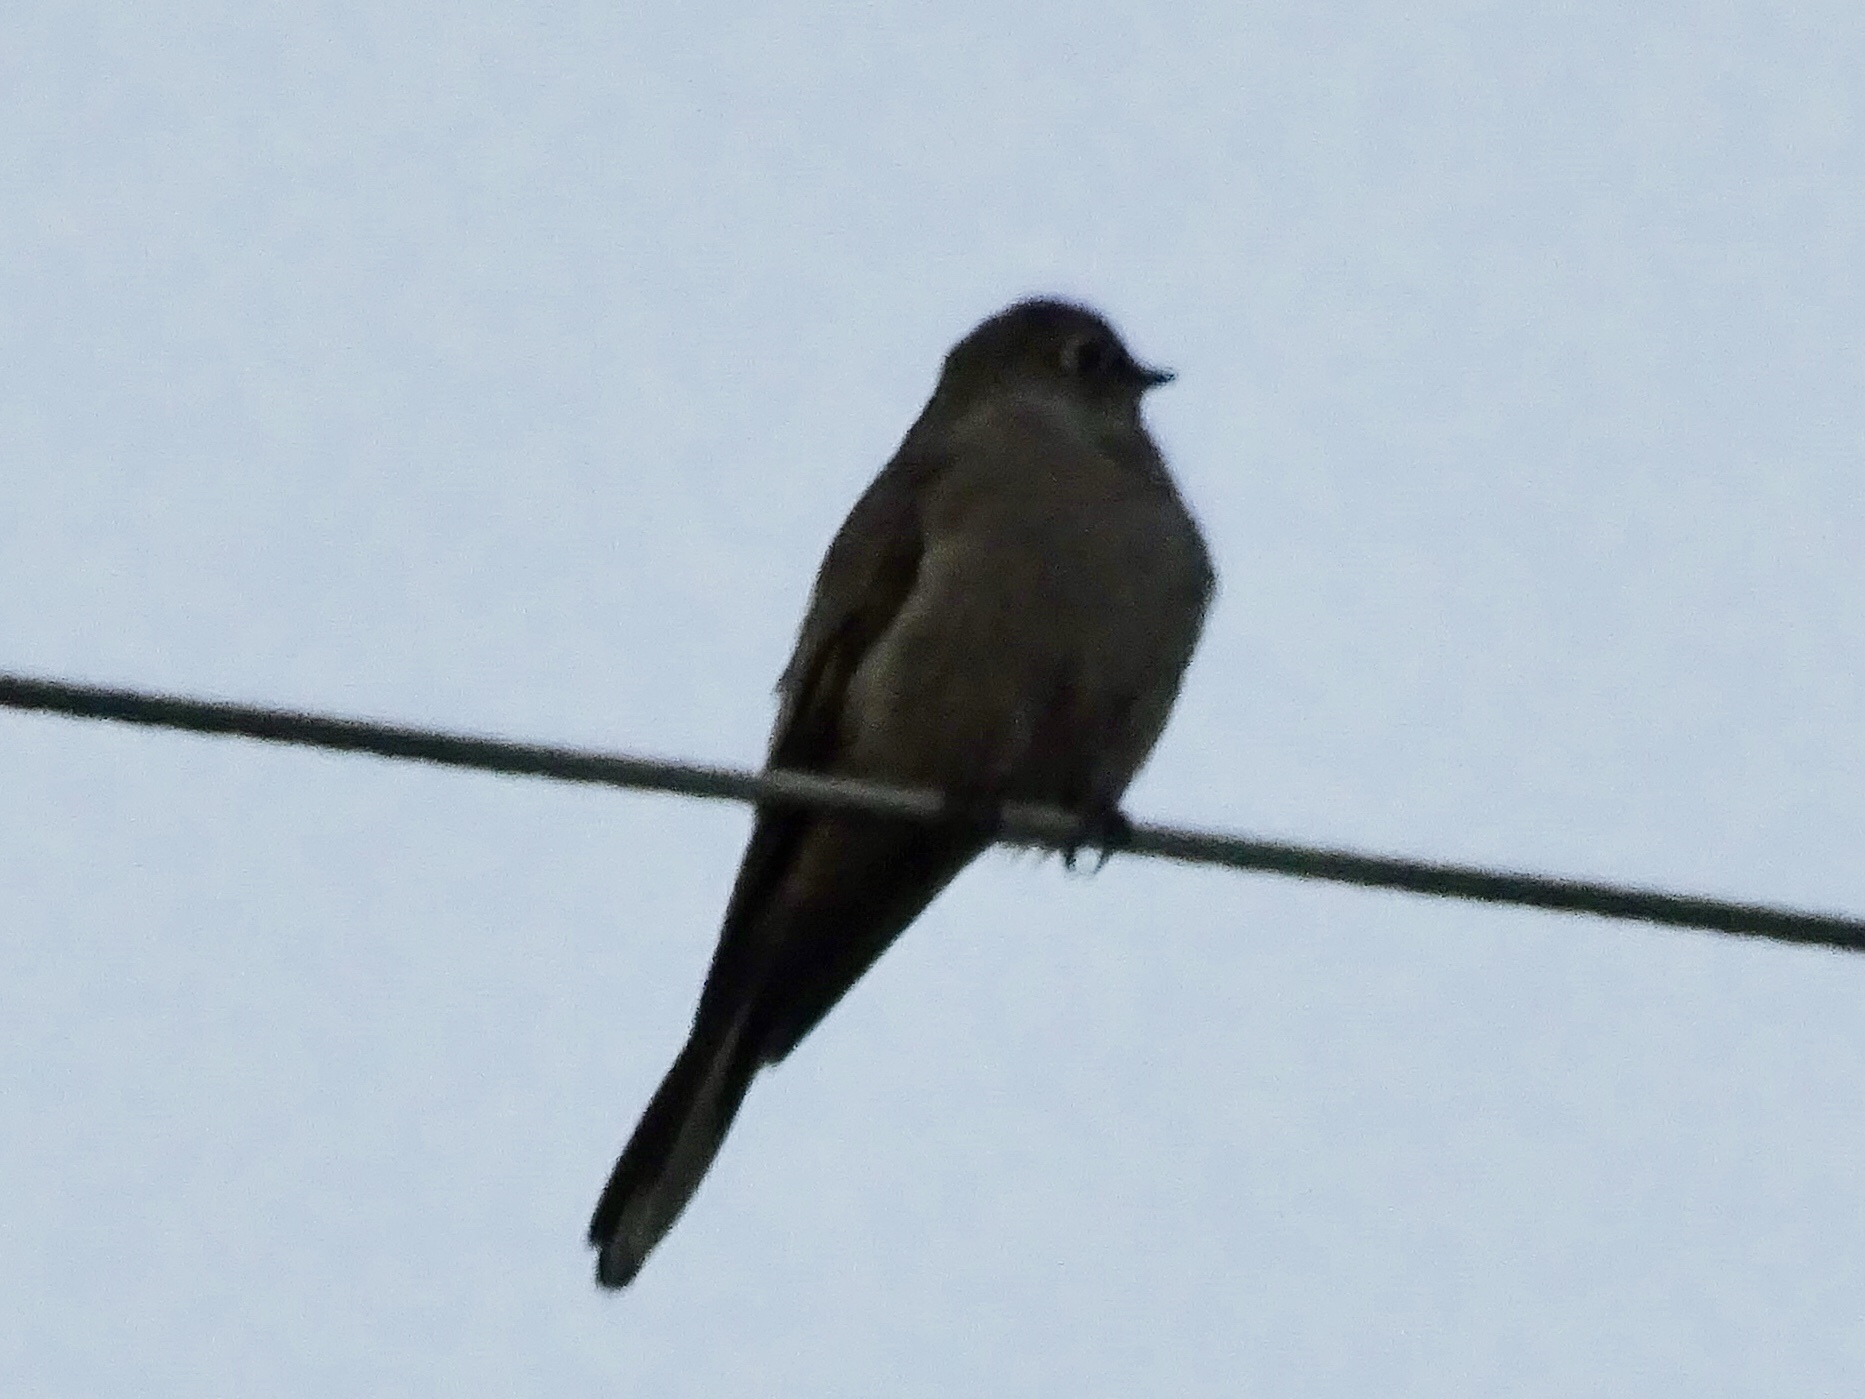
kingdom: Animalia
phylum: Chordata
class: Aves
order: Passeriformes
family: Turdidae
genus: Myadestes
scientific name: Myadestes townsendi
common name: Townsend's solitaire
